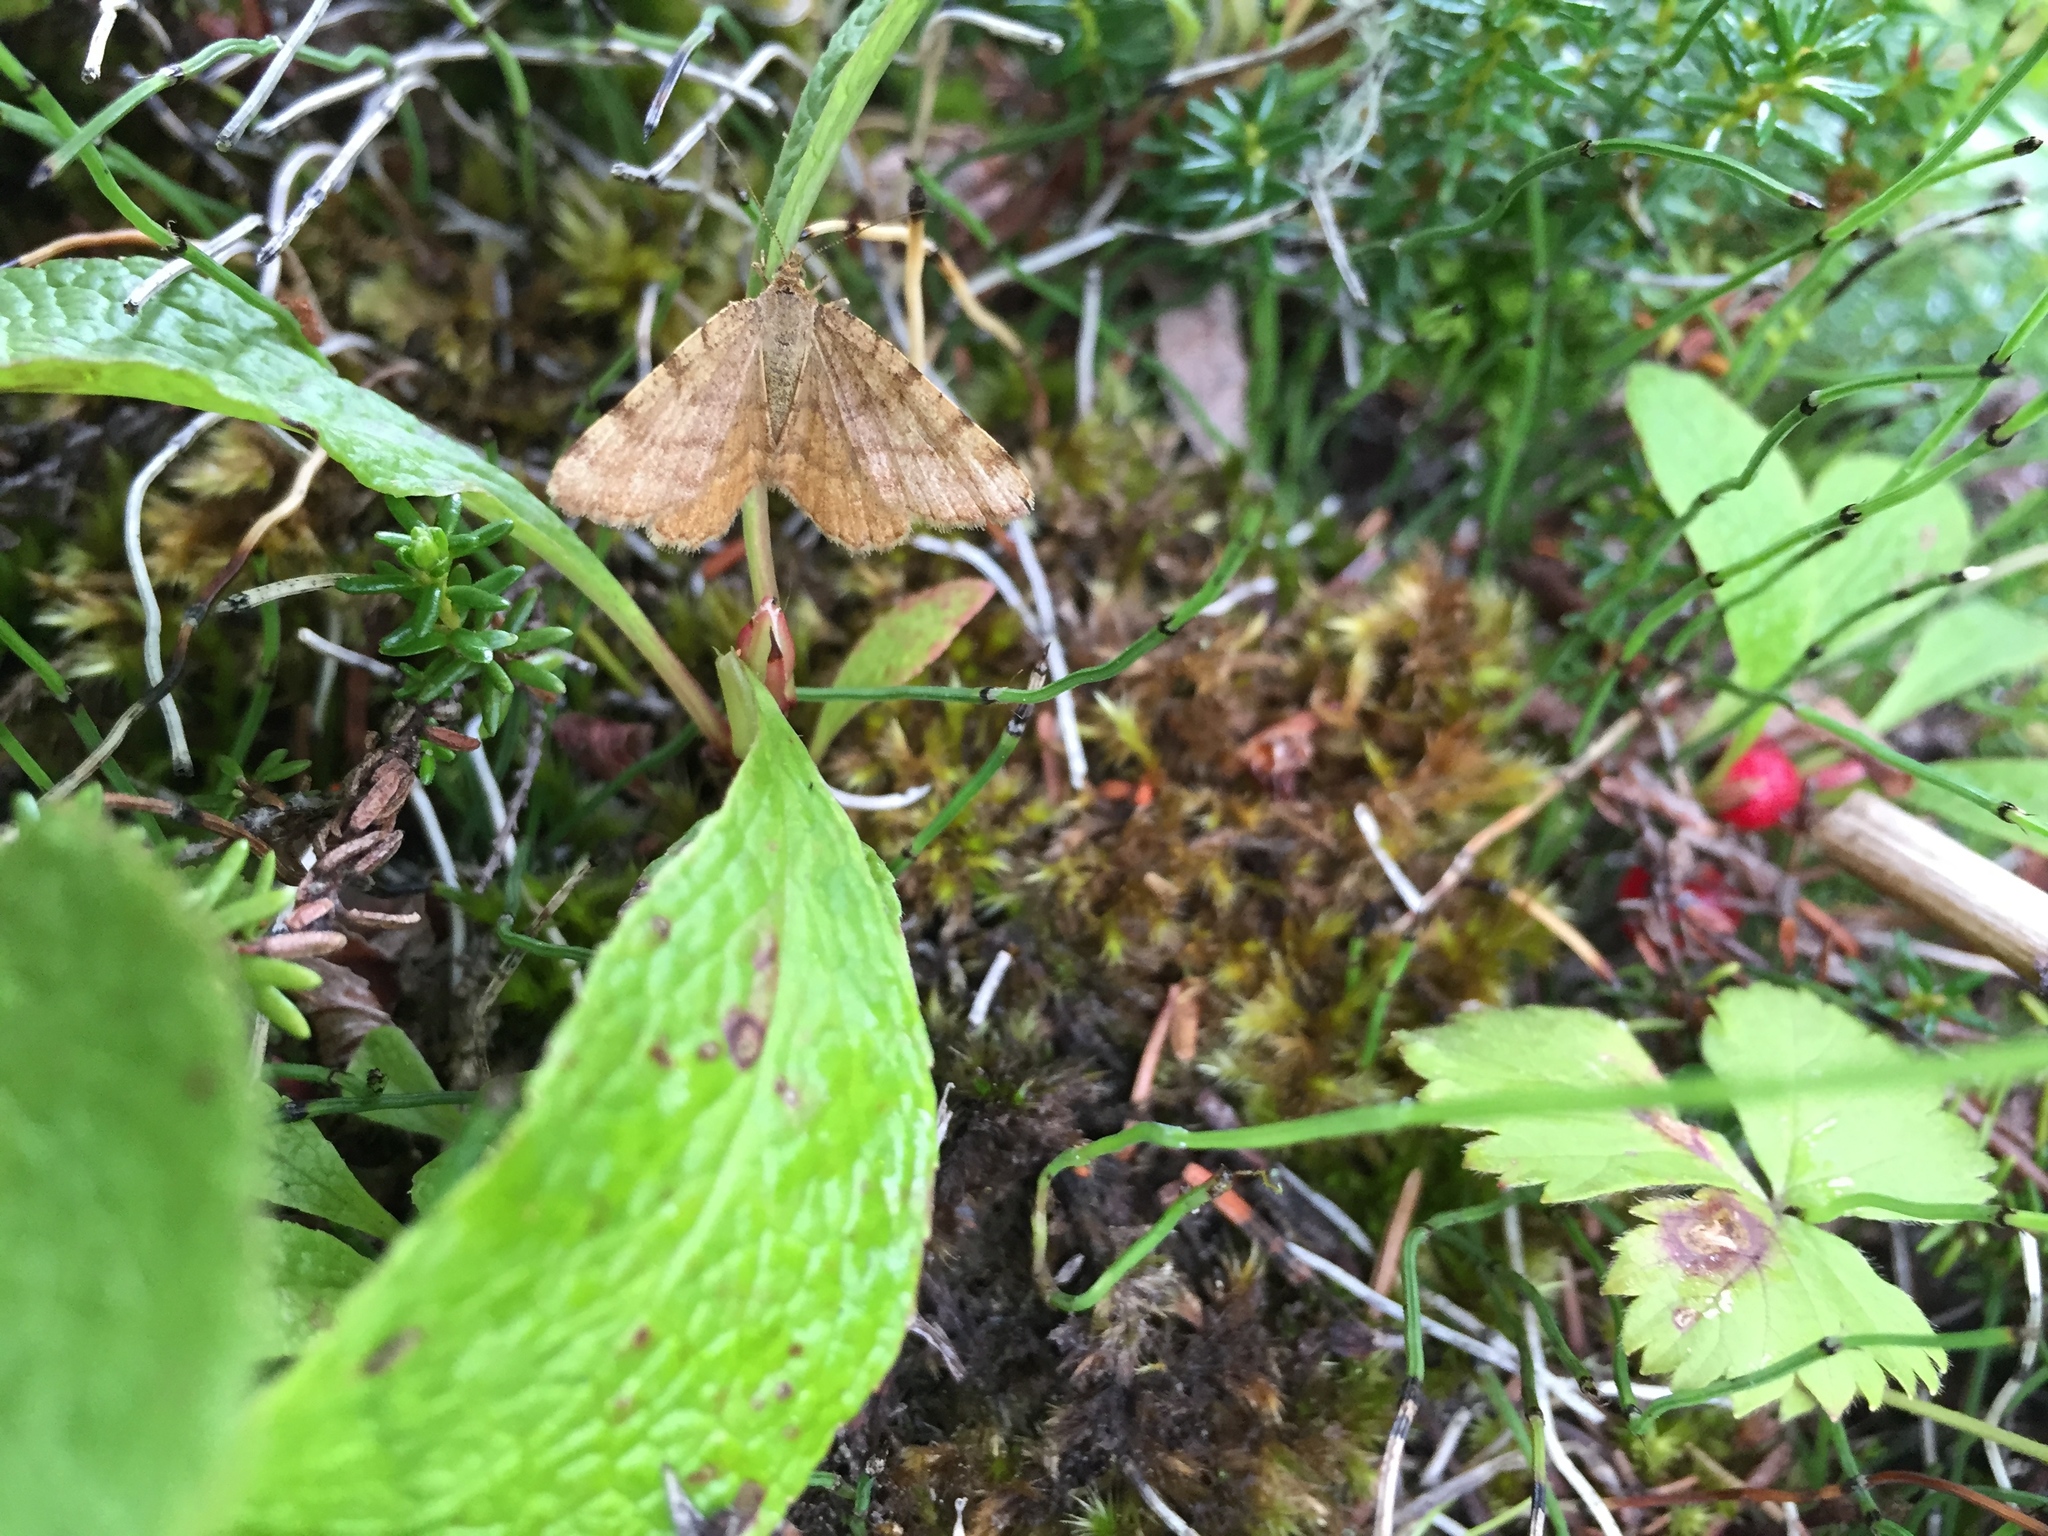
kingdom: Animalia
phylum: Arthropoda
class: Insecta
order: Lepidoptera
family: Geometridae
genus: Macaria
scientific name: Macaria brunneata
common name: Rannoch looper
